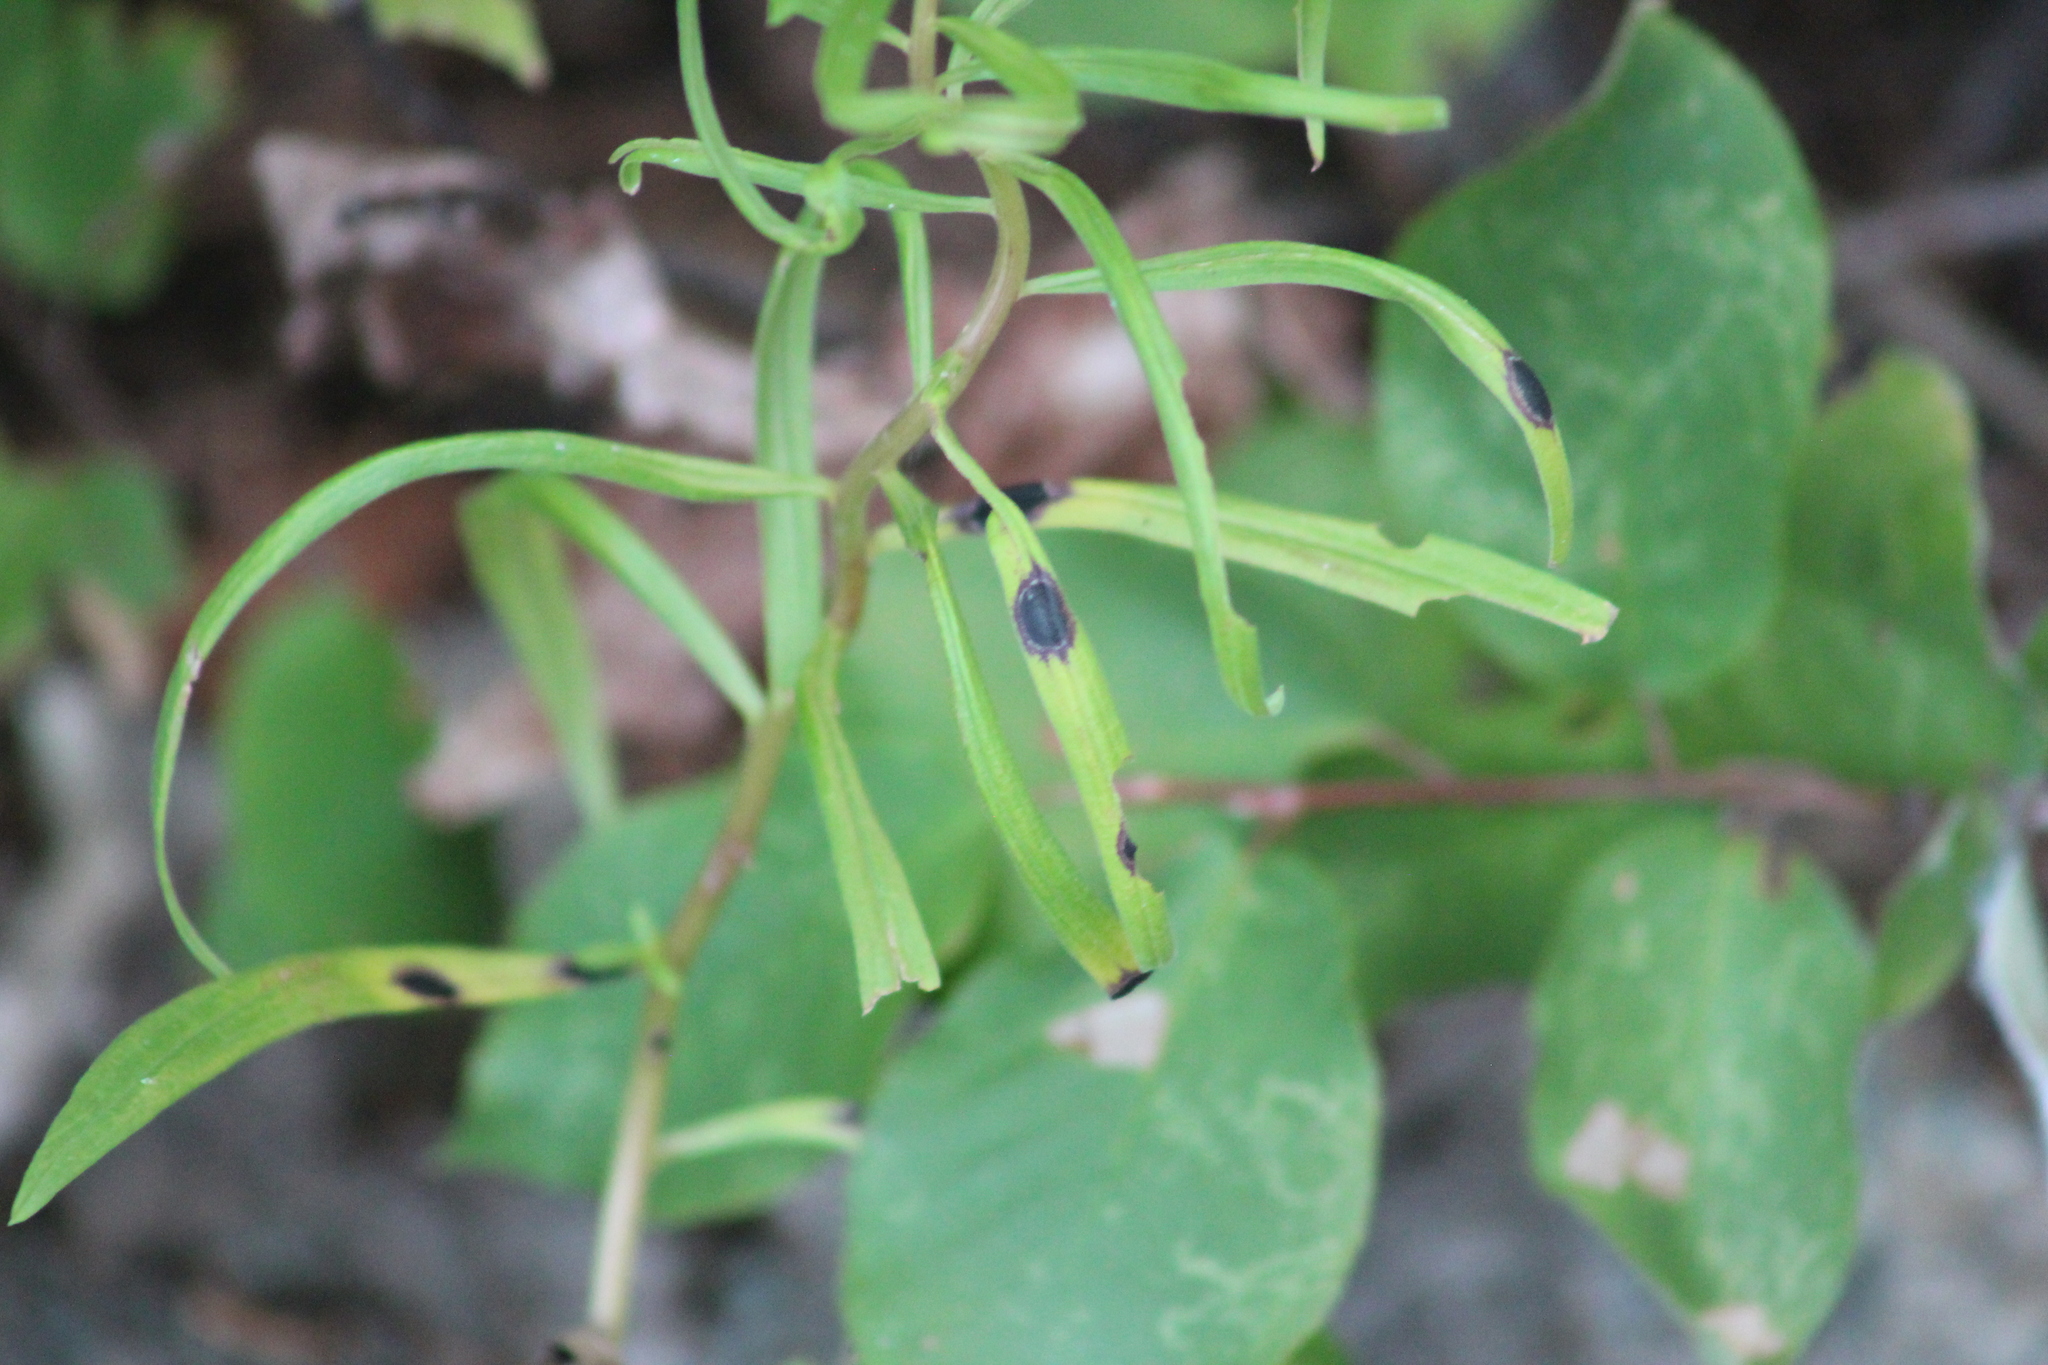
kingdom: Animalia
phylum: Arthropoda
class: Insecta
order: Diptera
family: Cecidomyiidae
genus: Asteromyia
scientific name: Asteromyia euthamiae
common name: Euthamia leaf gall midge
